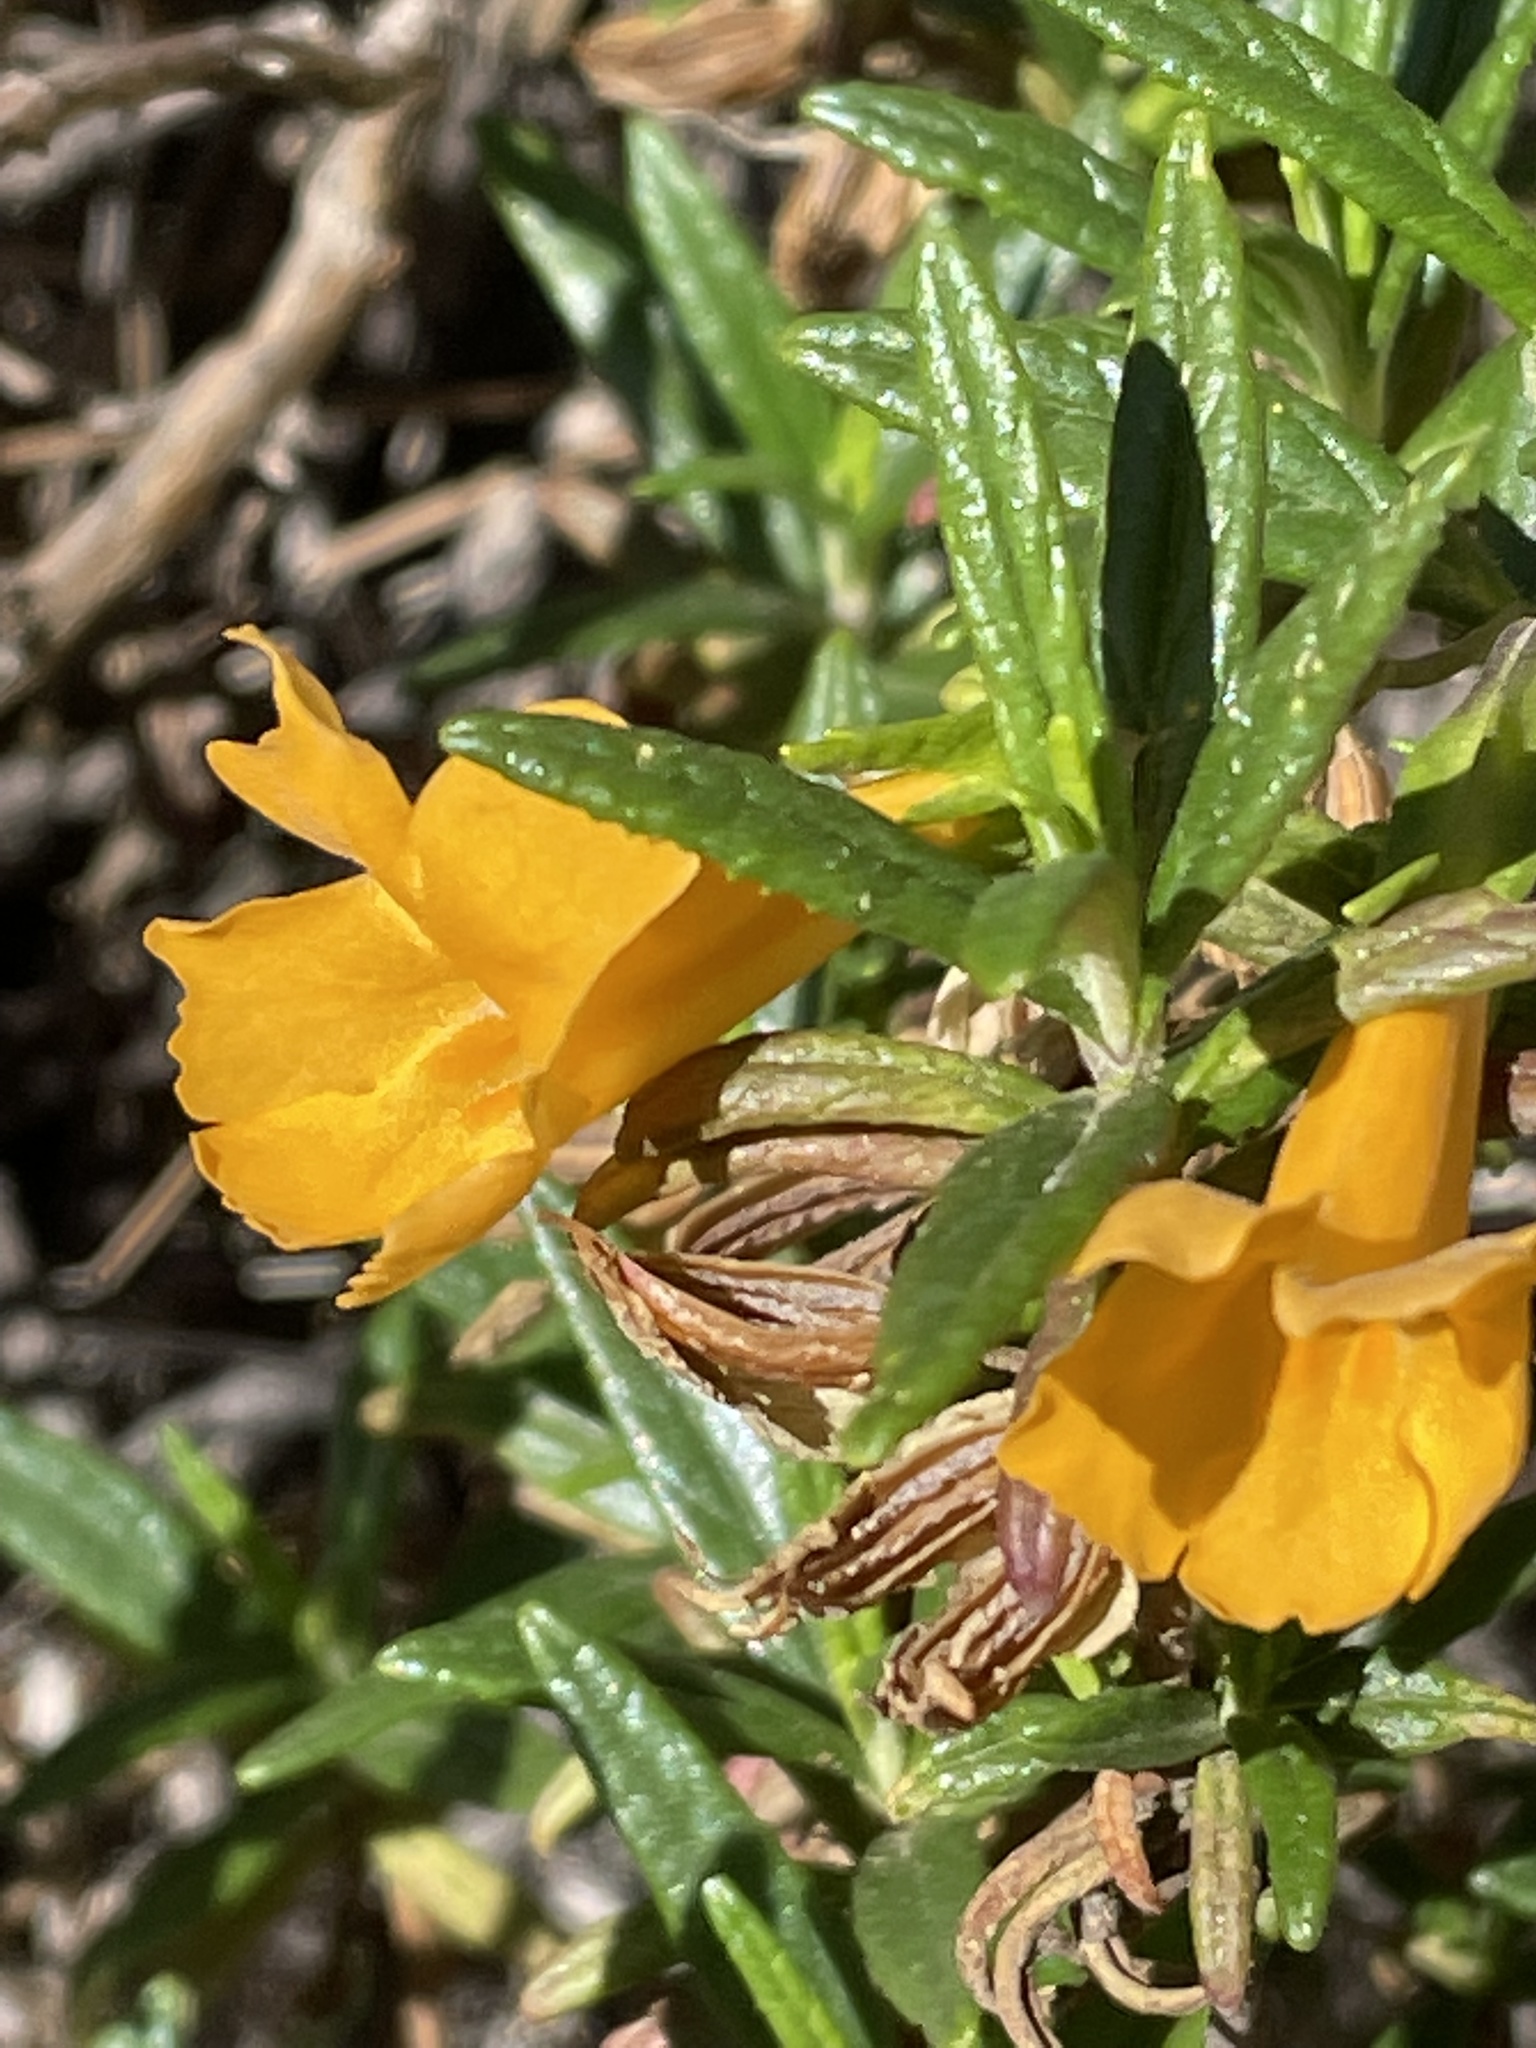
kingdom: Plantae
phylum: Tracheophyta
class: Magnoliopsida
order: Lamiales
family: Phrymaceae
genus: Diplacus
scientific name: Diplacus aurantiacus
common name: Bush monkey-flower
